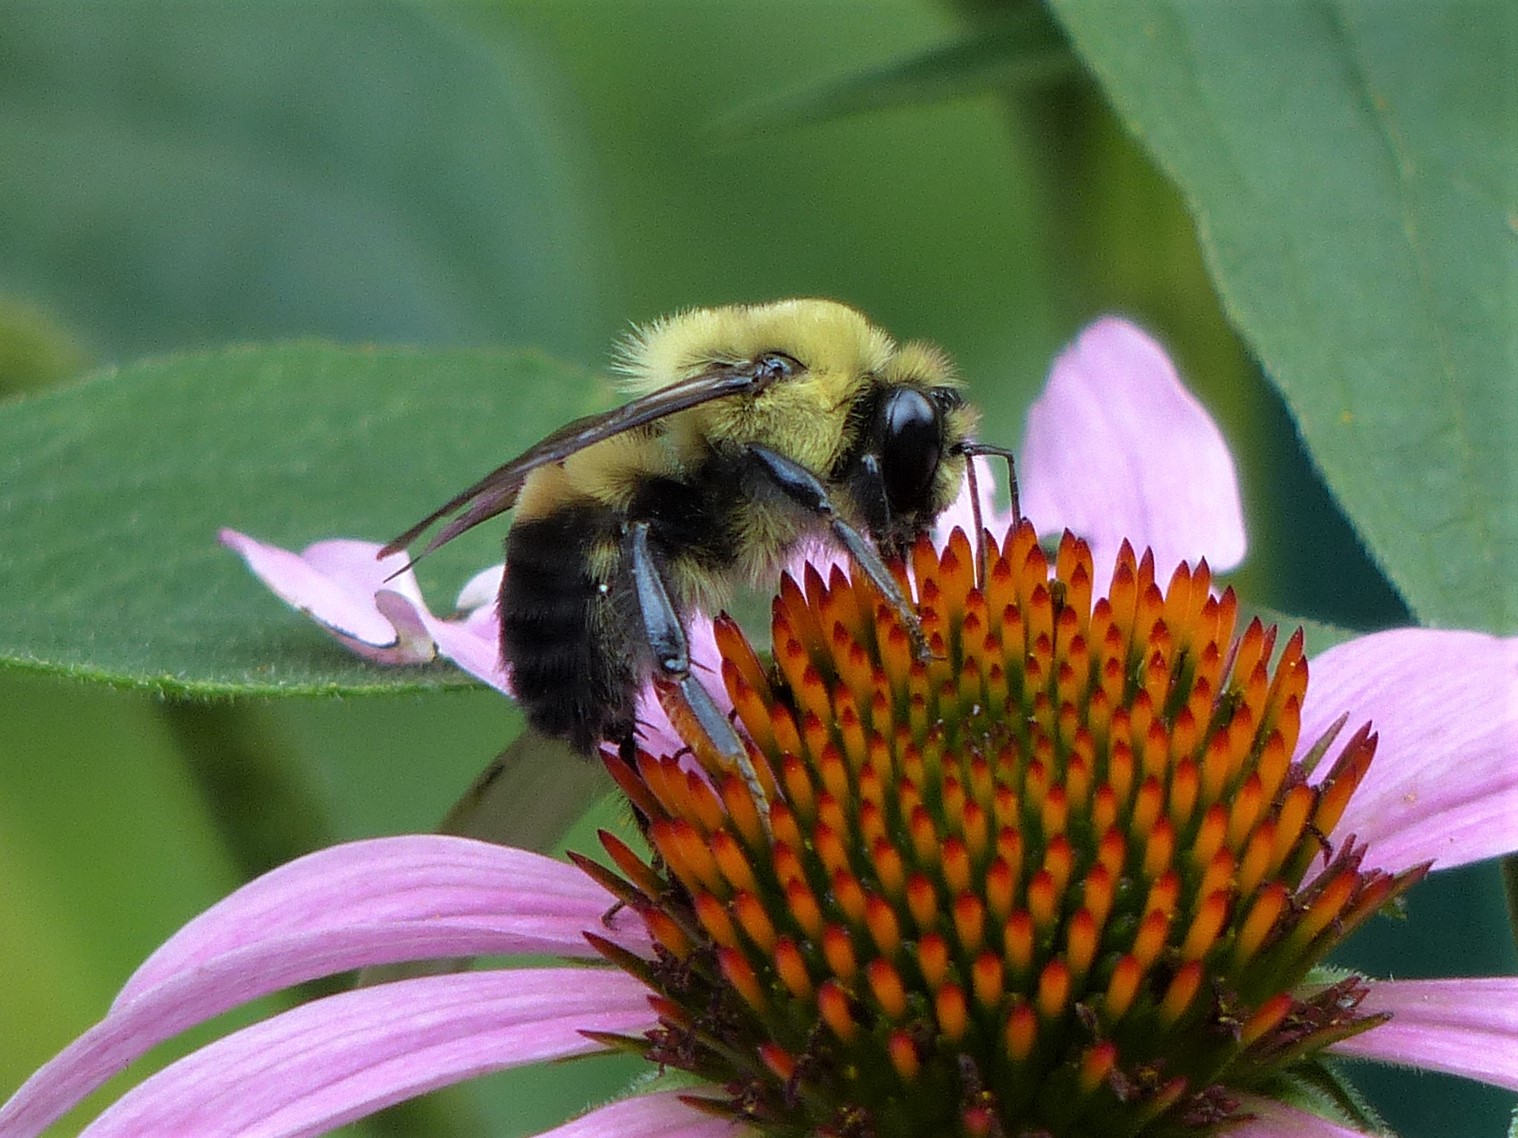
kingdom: Animalia
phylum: Arthropoda
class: Insecta
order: Hymenoptera
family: Apidae
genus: Bombus
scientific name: Bombus griseocollis
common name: Brown-belted bumble bee
